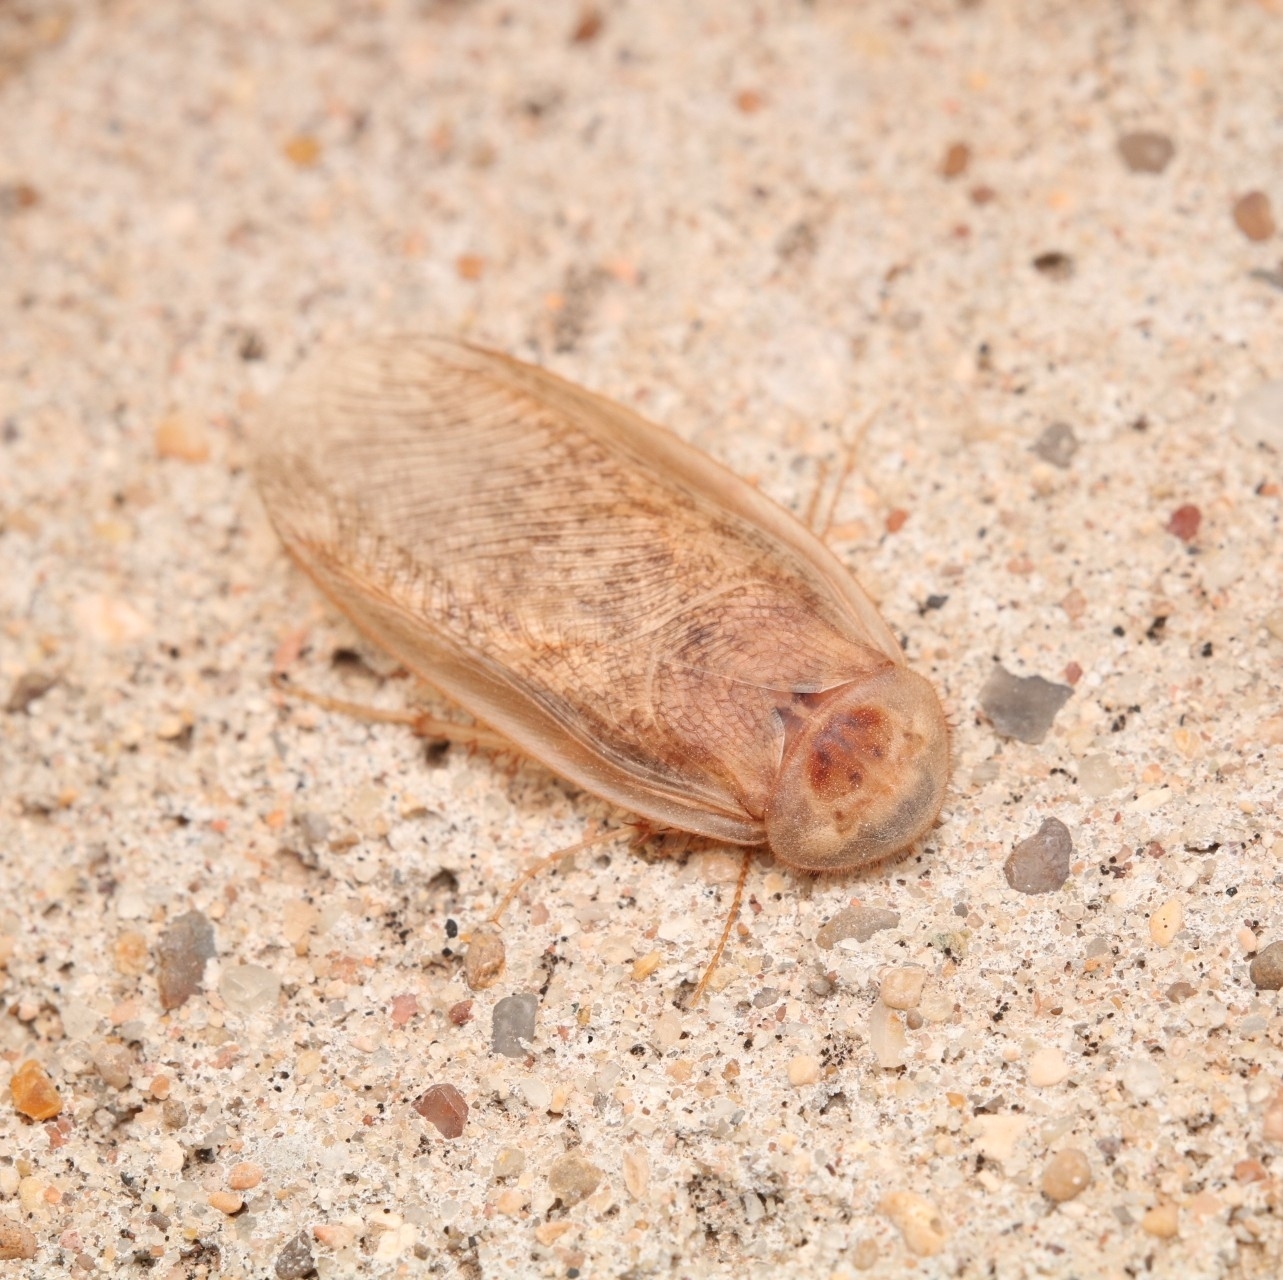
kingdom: Animalia
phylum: Arthropoda
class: Insecta
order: Blattodea
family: Corydiidae
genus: Arenivaga
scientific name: Arenivaga bolliana
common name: Boll's sand cockroach
